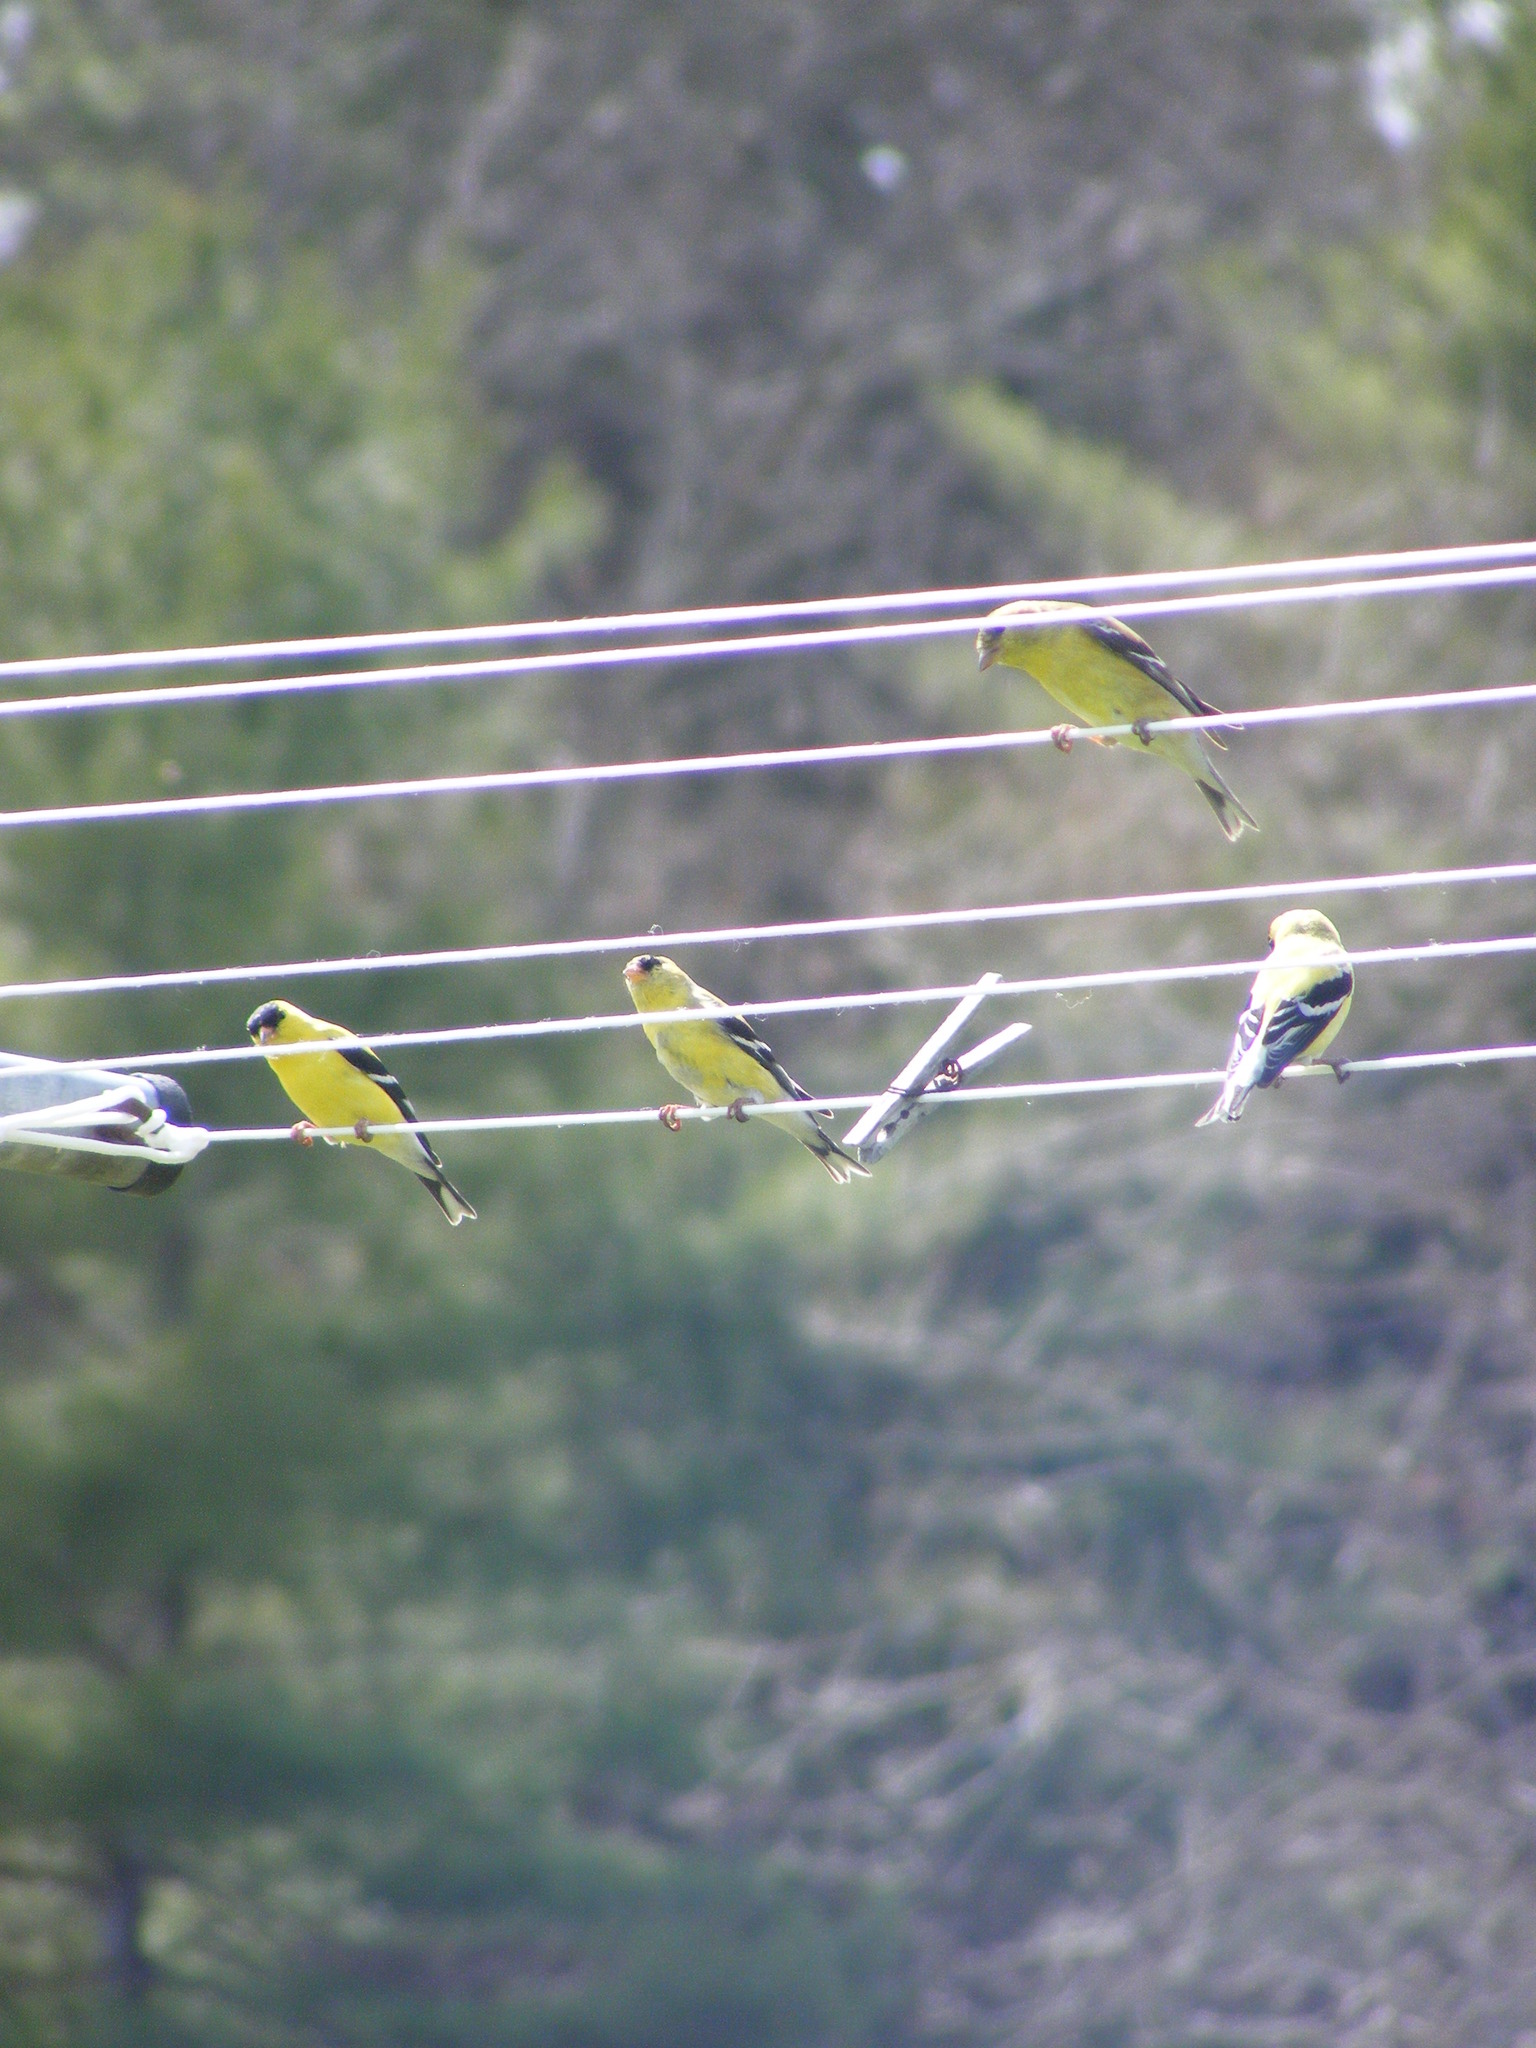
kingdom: Animalia
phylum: Chordata
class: Aves
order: Passeriformes
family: Fringillidae
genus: Spinus
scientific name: Spinus tristis
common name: American goldfinch
